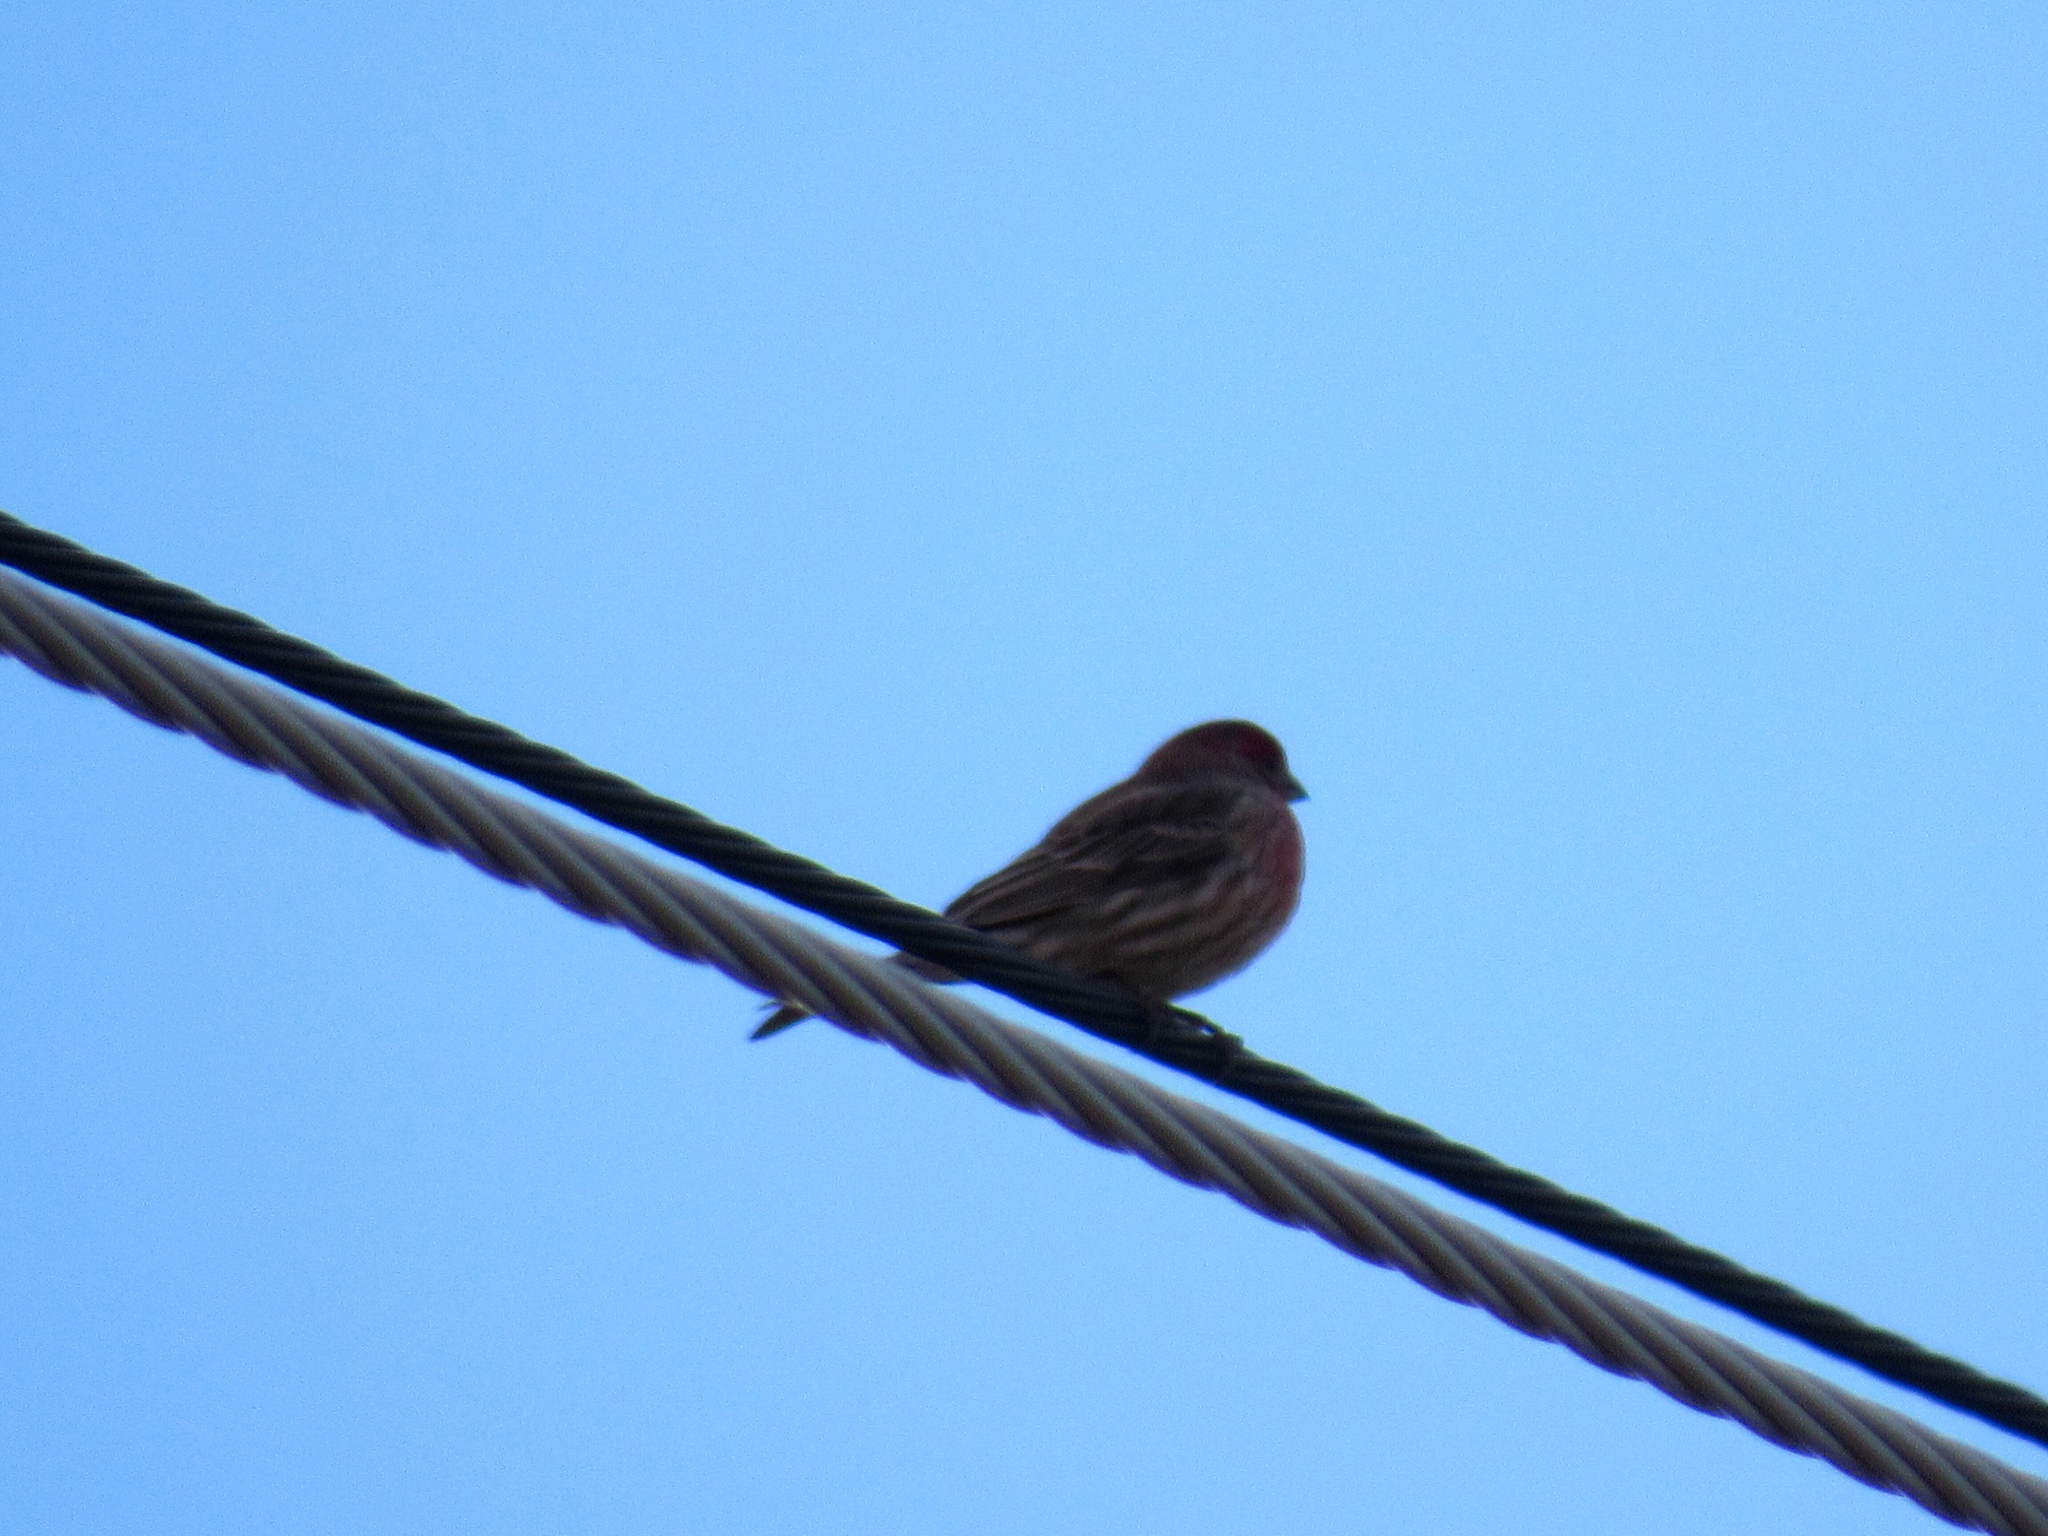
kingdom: Animalia
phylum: Chordata
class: Aves
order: Passeriformes
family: Fringillidae
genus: Haemorhous
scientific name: Haemorhous mexicanus
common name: House finch
